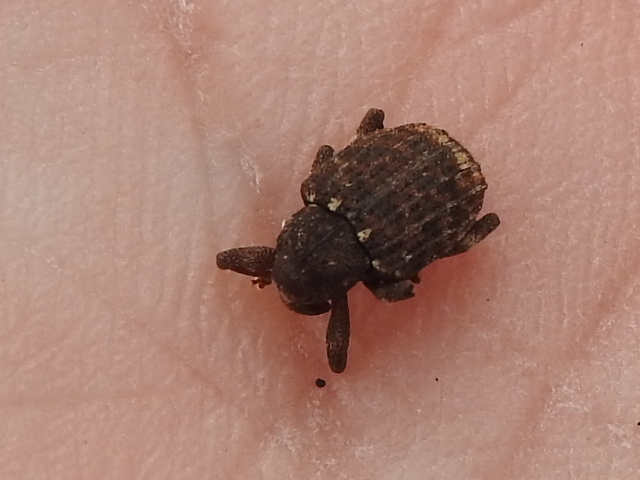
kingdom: Animalia
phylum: Arthropoda
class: Insecta
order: Coleoptera
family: Curculionidae
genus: Conotrachelus
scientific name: Conotrachelus posticatus
